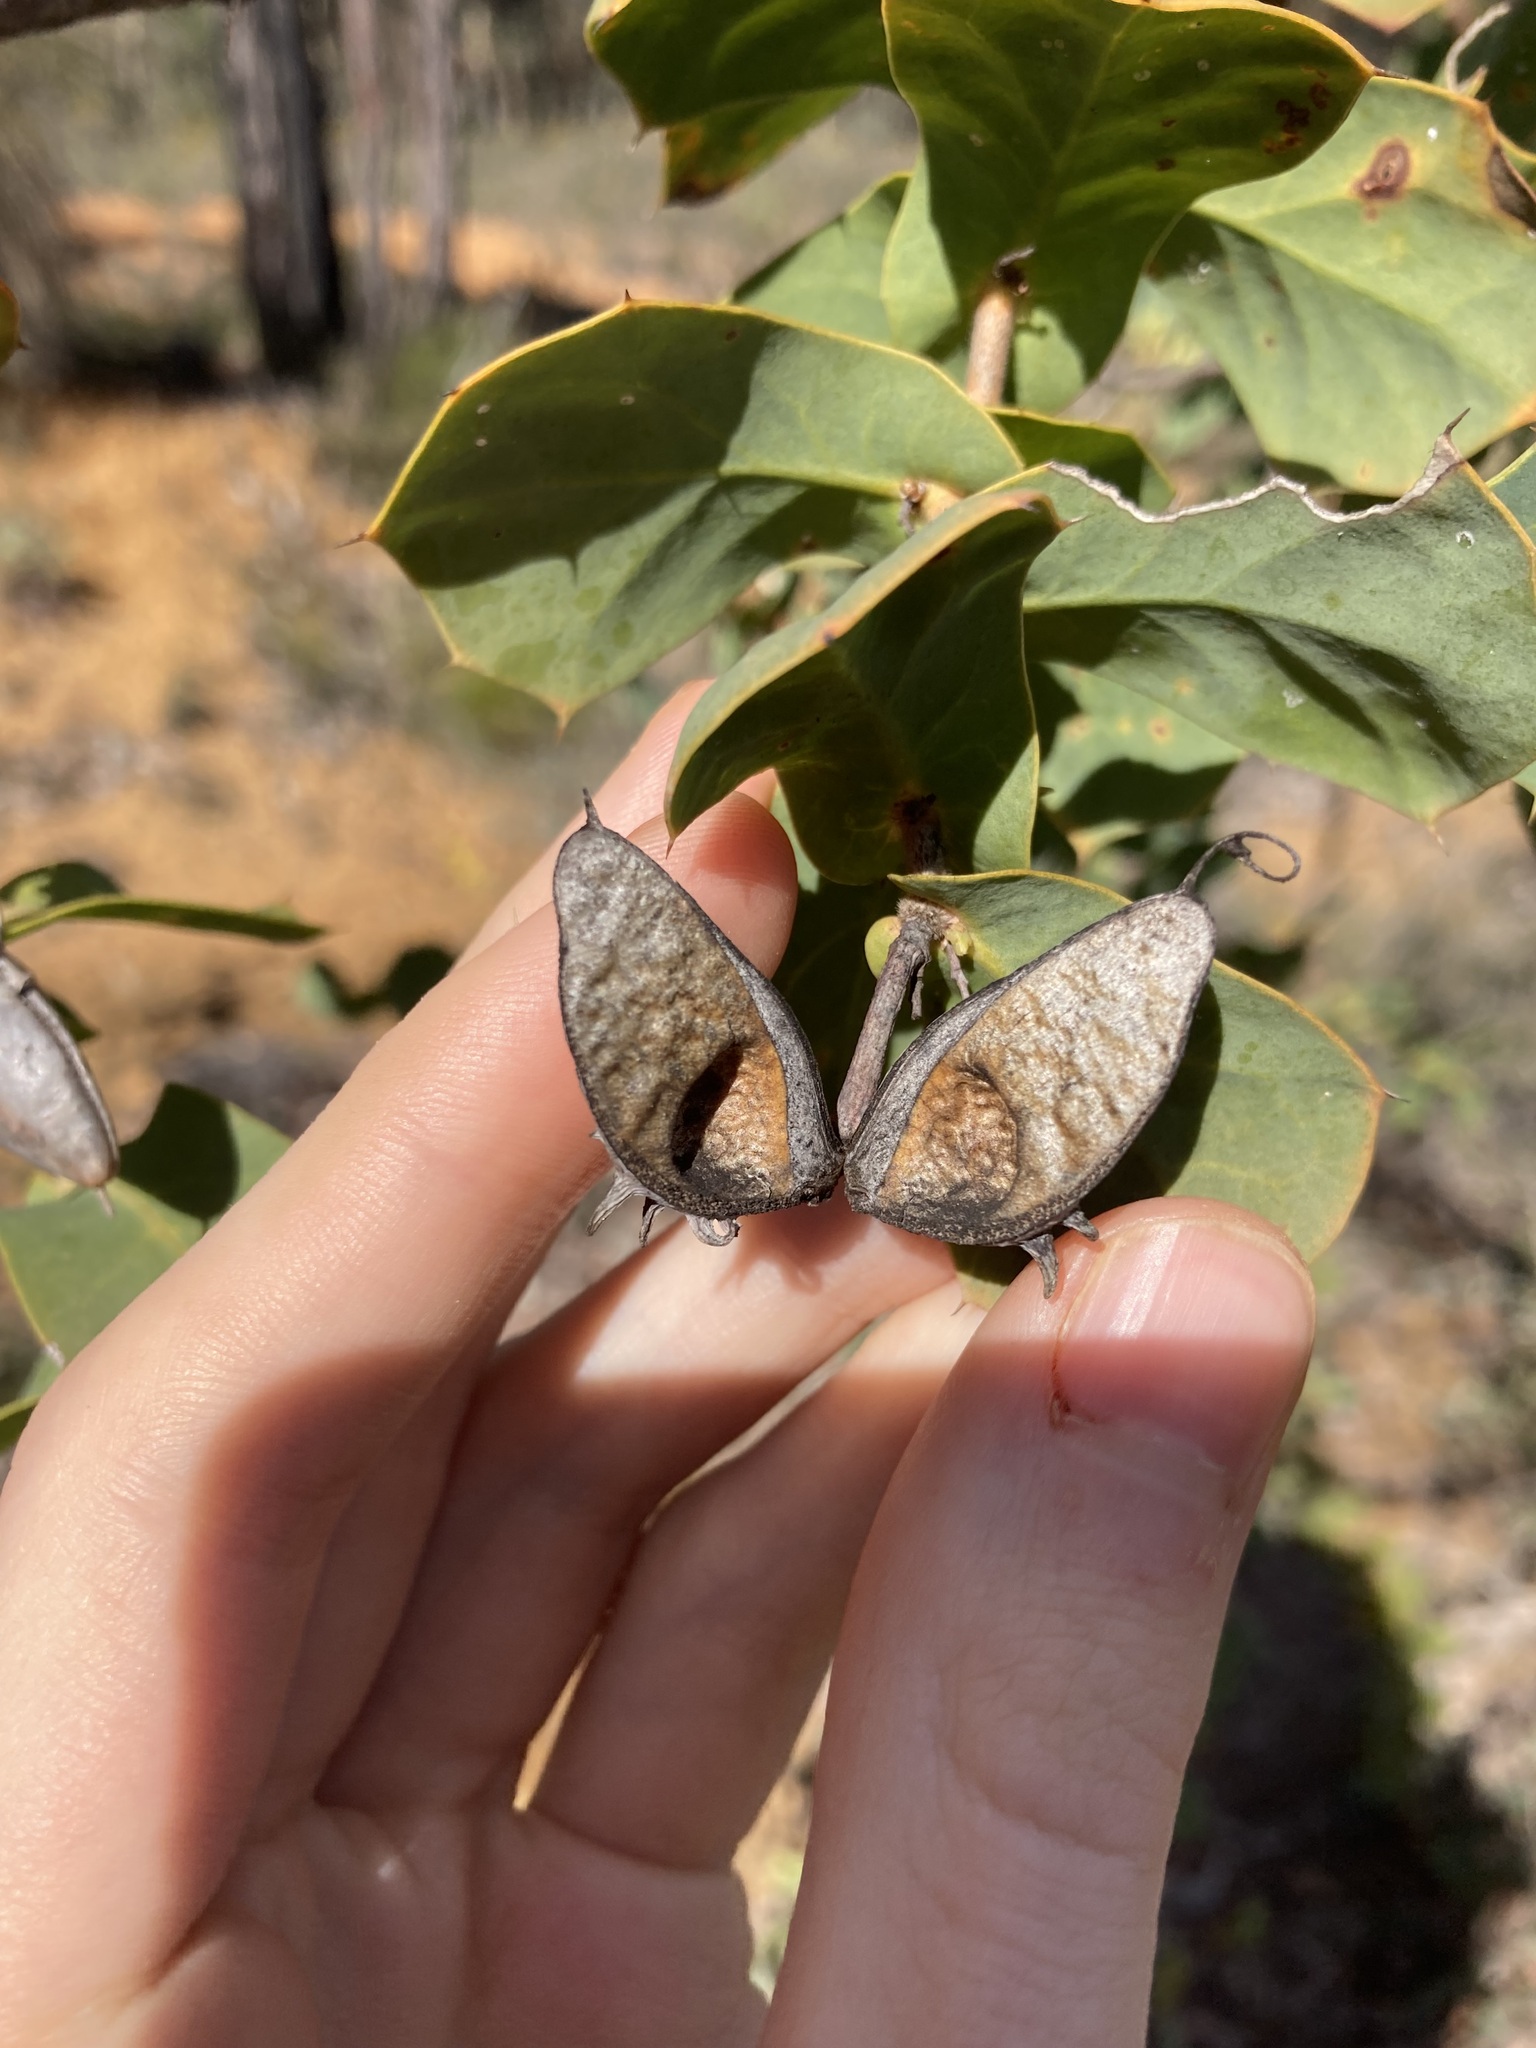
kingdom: Plantae
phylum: Tracheophyta
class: Magnoliopsida
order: Proteales
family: Proteaceae
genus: Hakea
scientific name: Hakea prostrata
